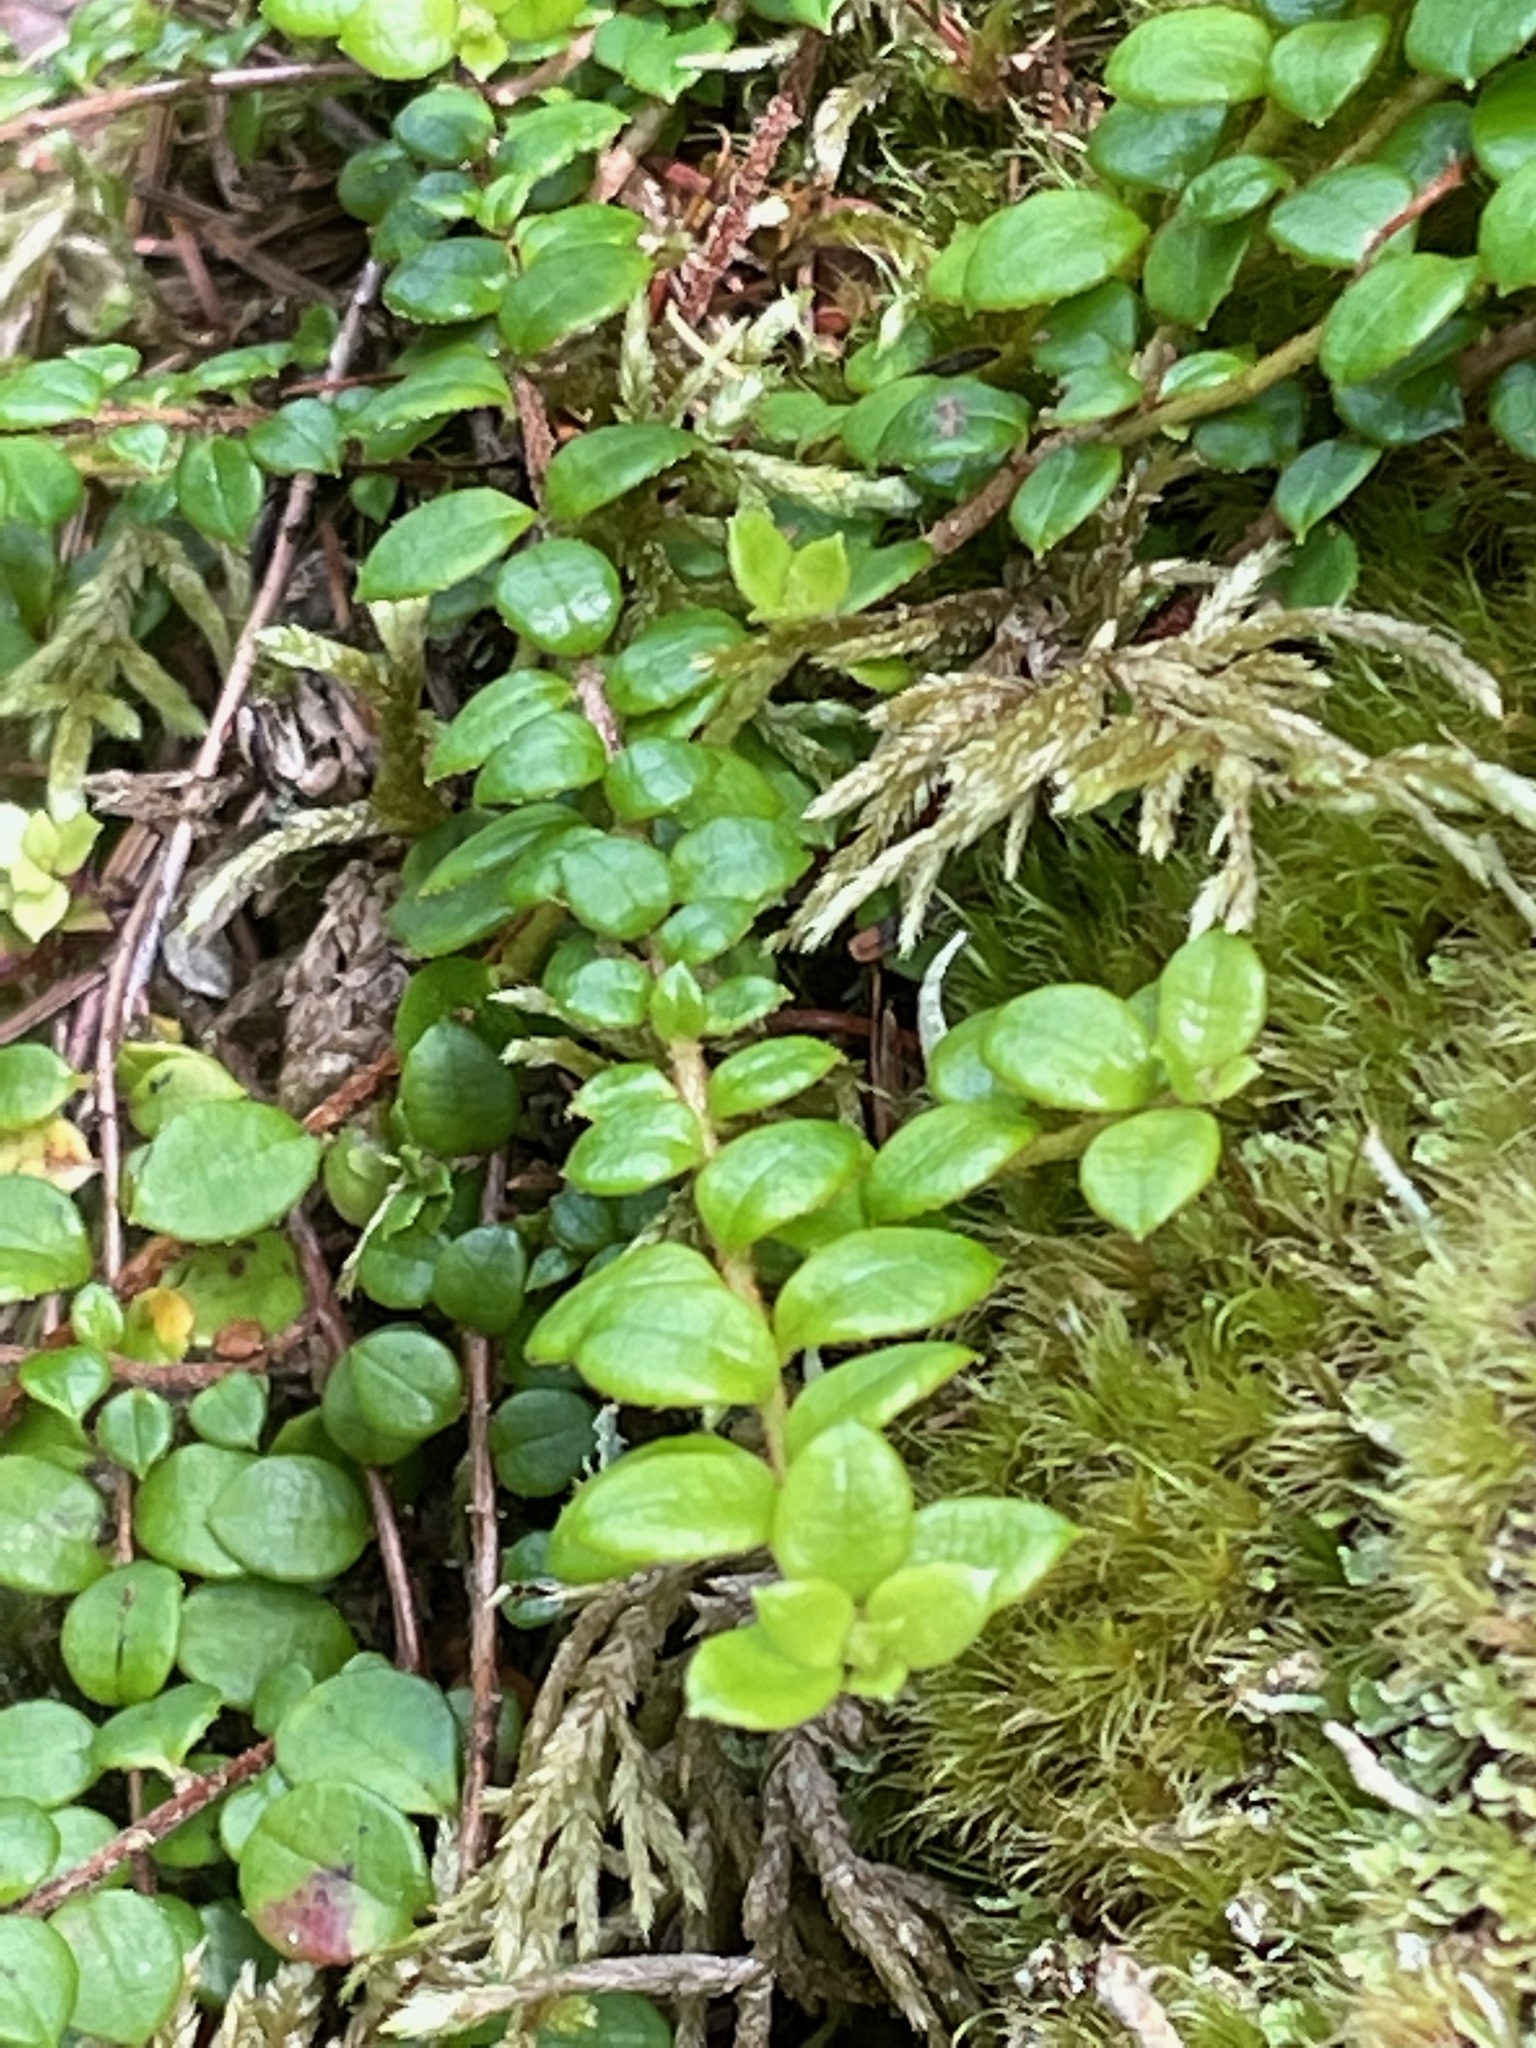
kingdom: Plantae
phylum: Tracheophyta
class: Magnoliopsida
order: Ericales
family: Ericaceae
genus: Gaultheria
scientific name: Gaultheria hispidula
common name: Cancer wintergreen
